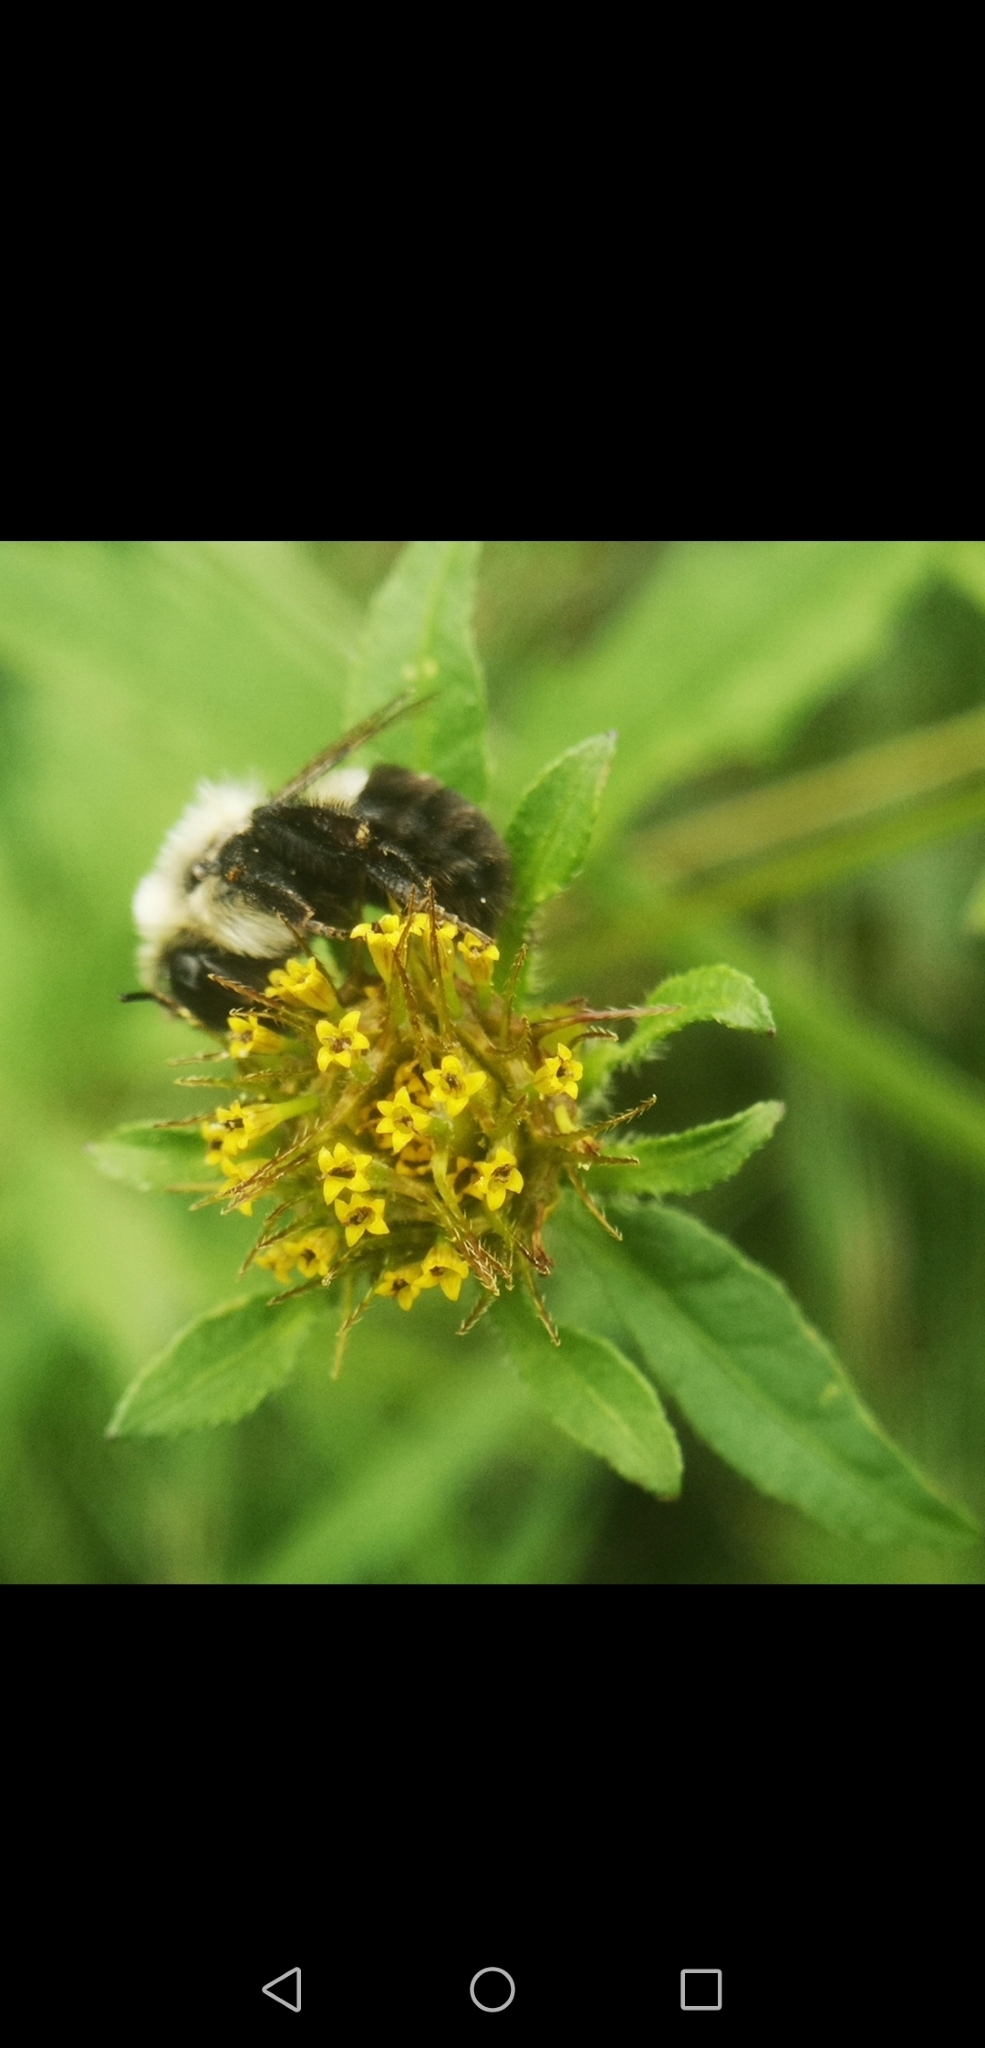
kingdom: Animalia
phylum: Arthropoda
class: Insecta
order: Hymenoptera
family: Apidae
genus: Bombus
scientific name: Bombus impatiens
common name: Common eastern bumble bee
